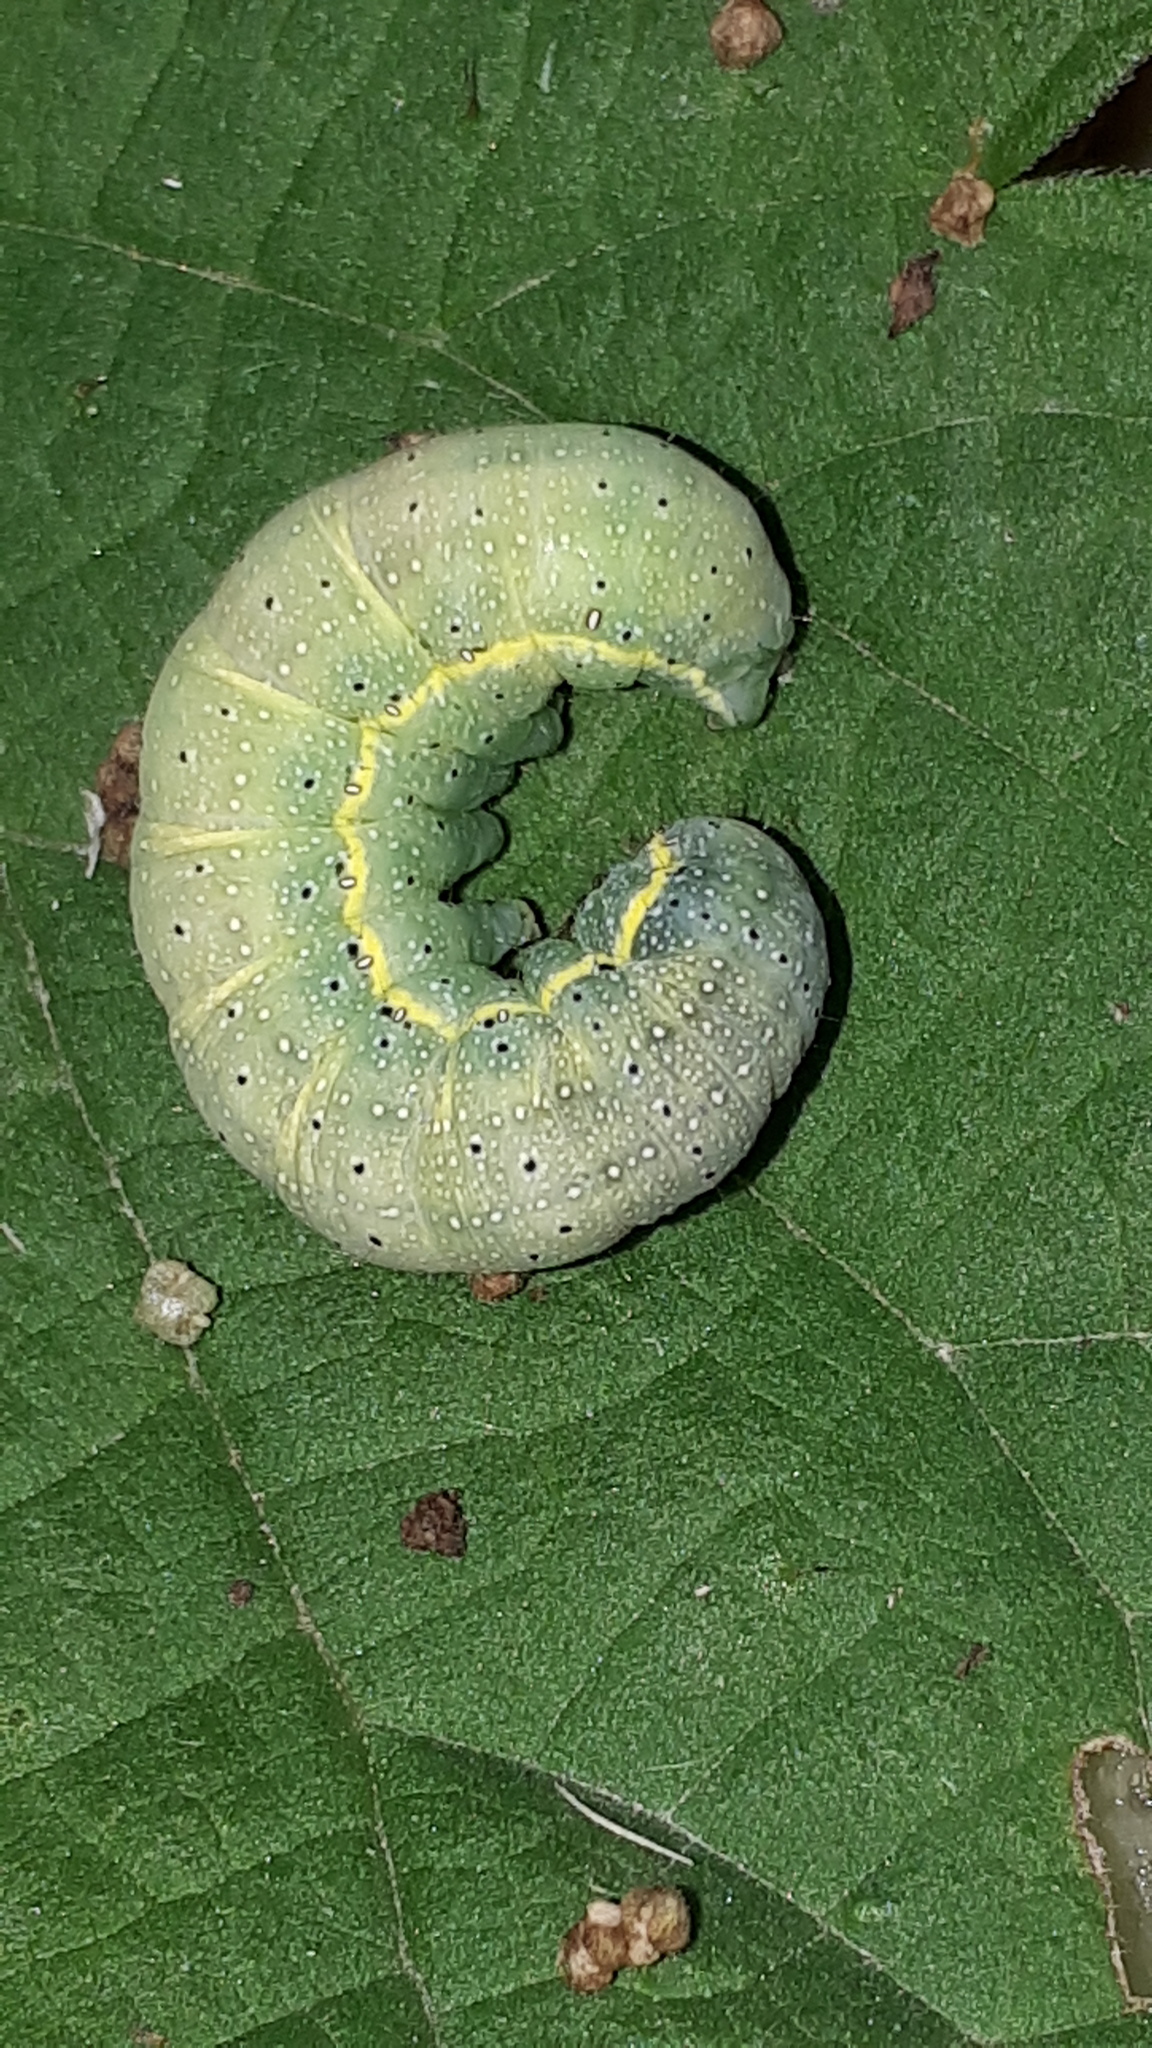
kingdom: Animalia
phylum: Arthropoda
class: Insecta
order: Lepidoptera
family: Noctuidae
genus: Lacanobia
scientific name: Lacanobia oleracea
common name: Bright-line brown-eye
